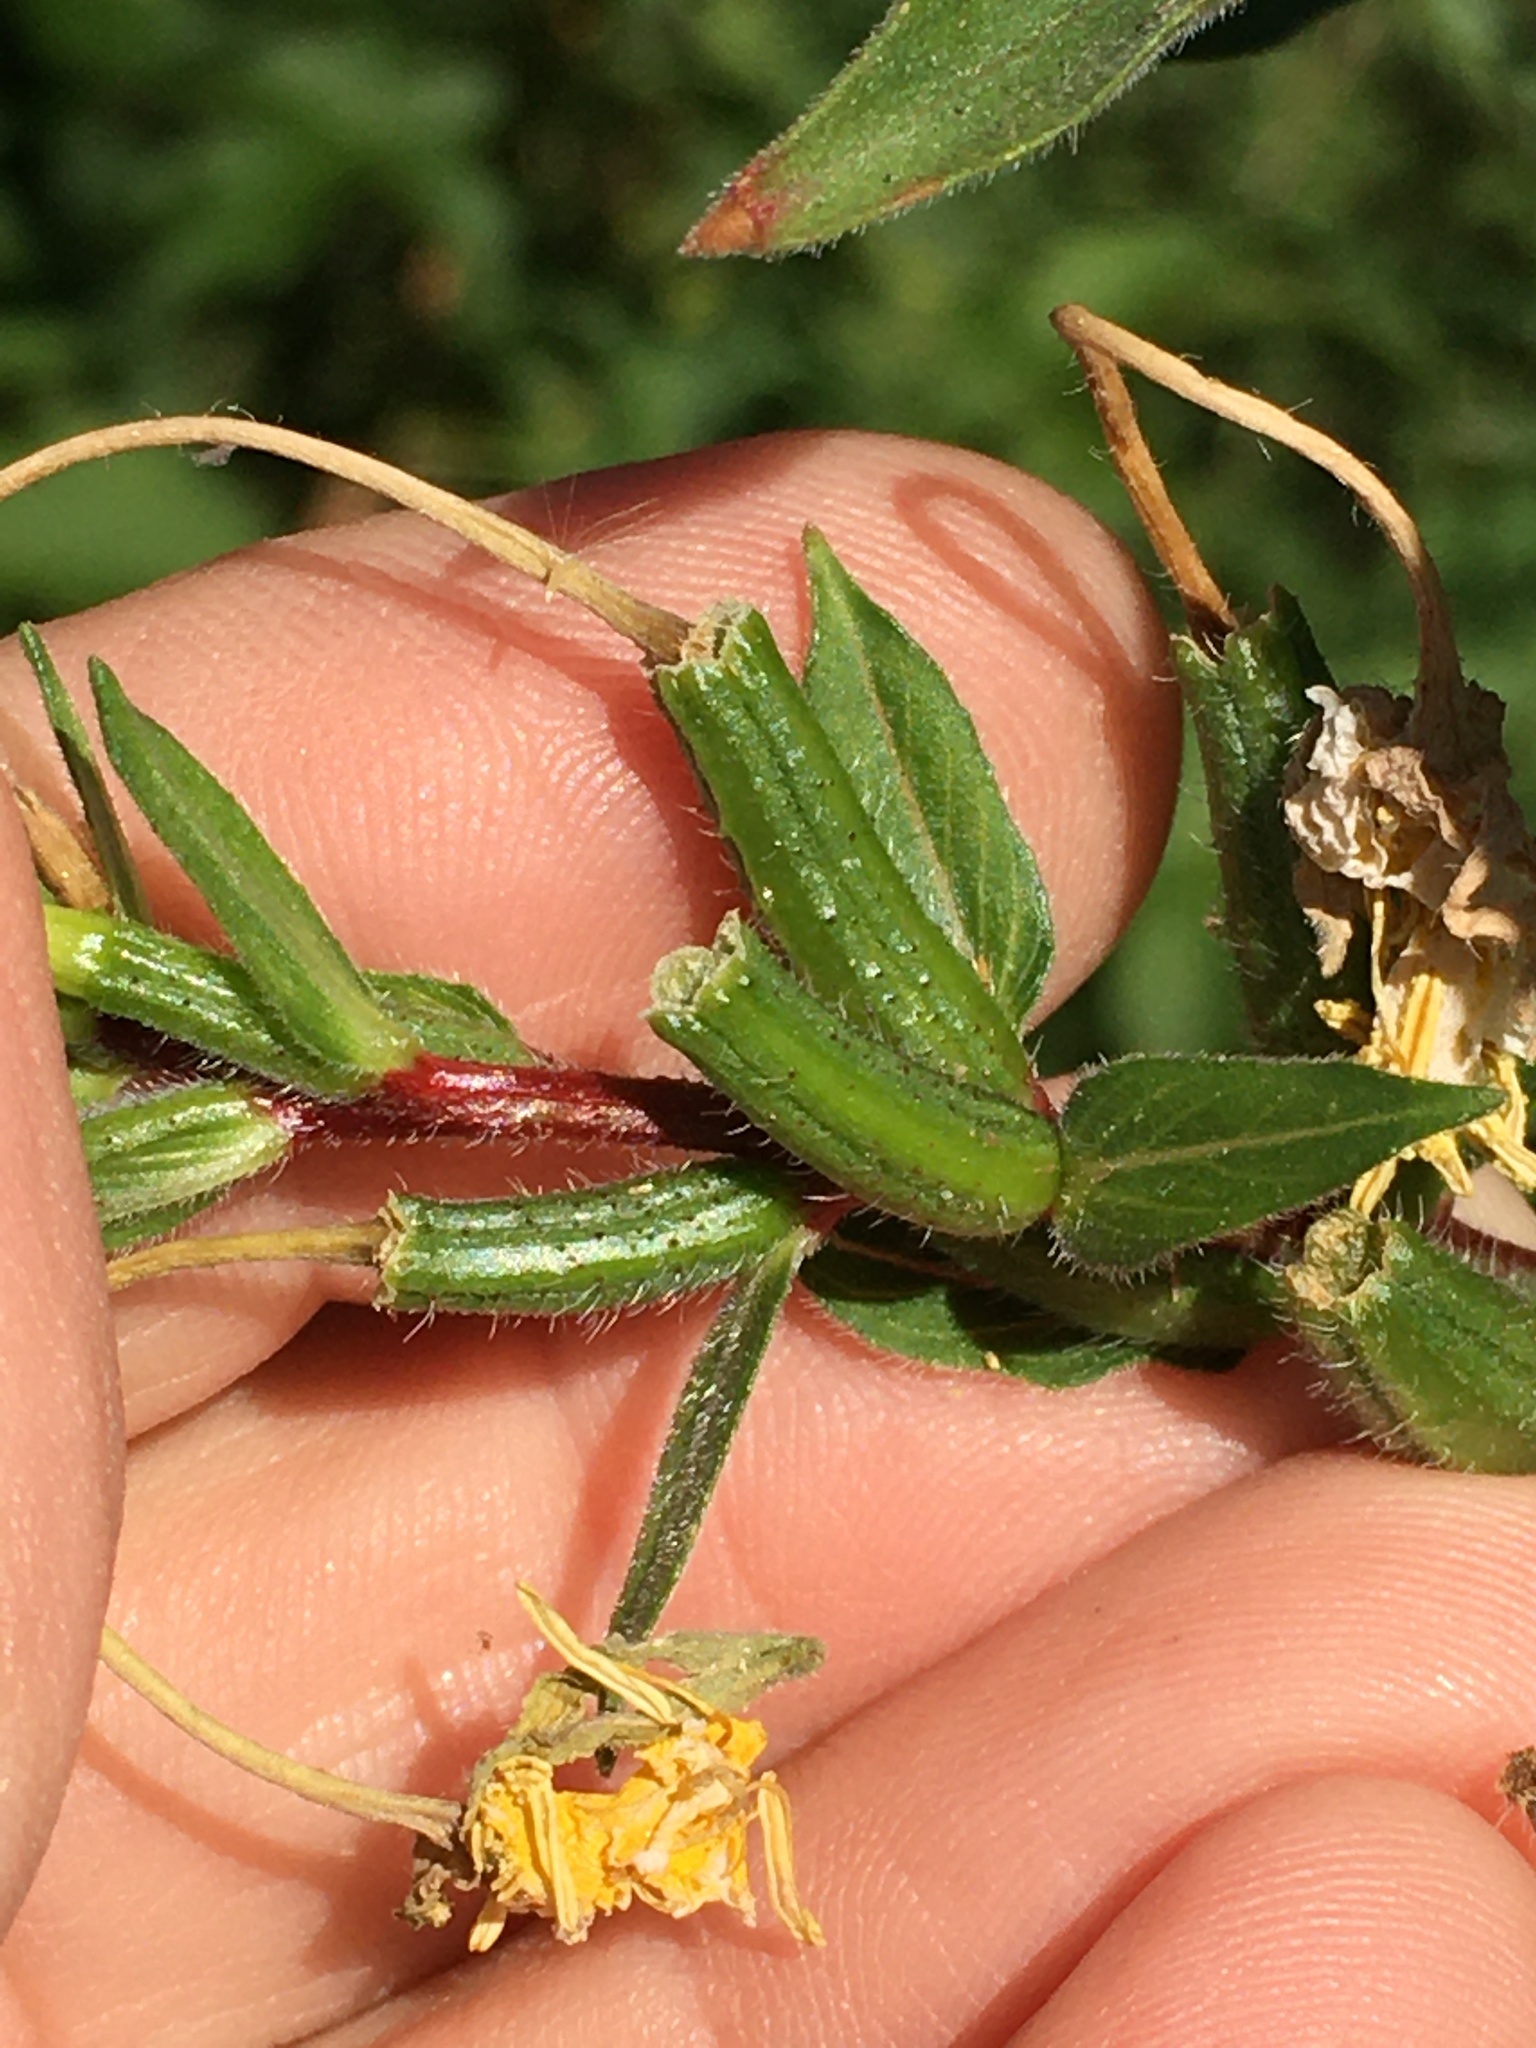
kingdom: Plantae
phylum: Tracheophyta
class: Magnoliopsida
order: Myrtales
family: Onagraceae
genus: Oenothera
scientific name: Oenothera biennis
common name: Common evening-primrose
